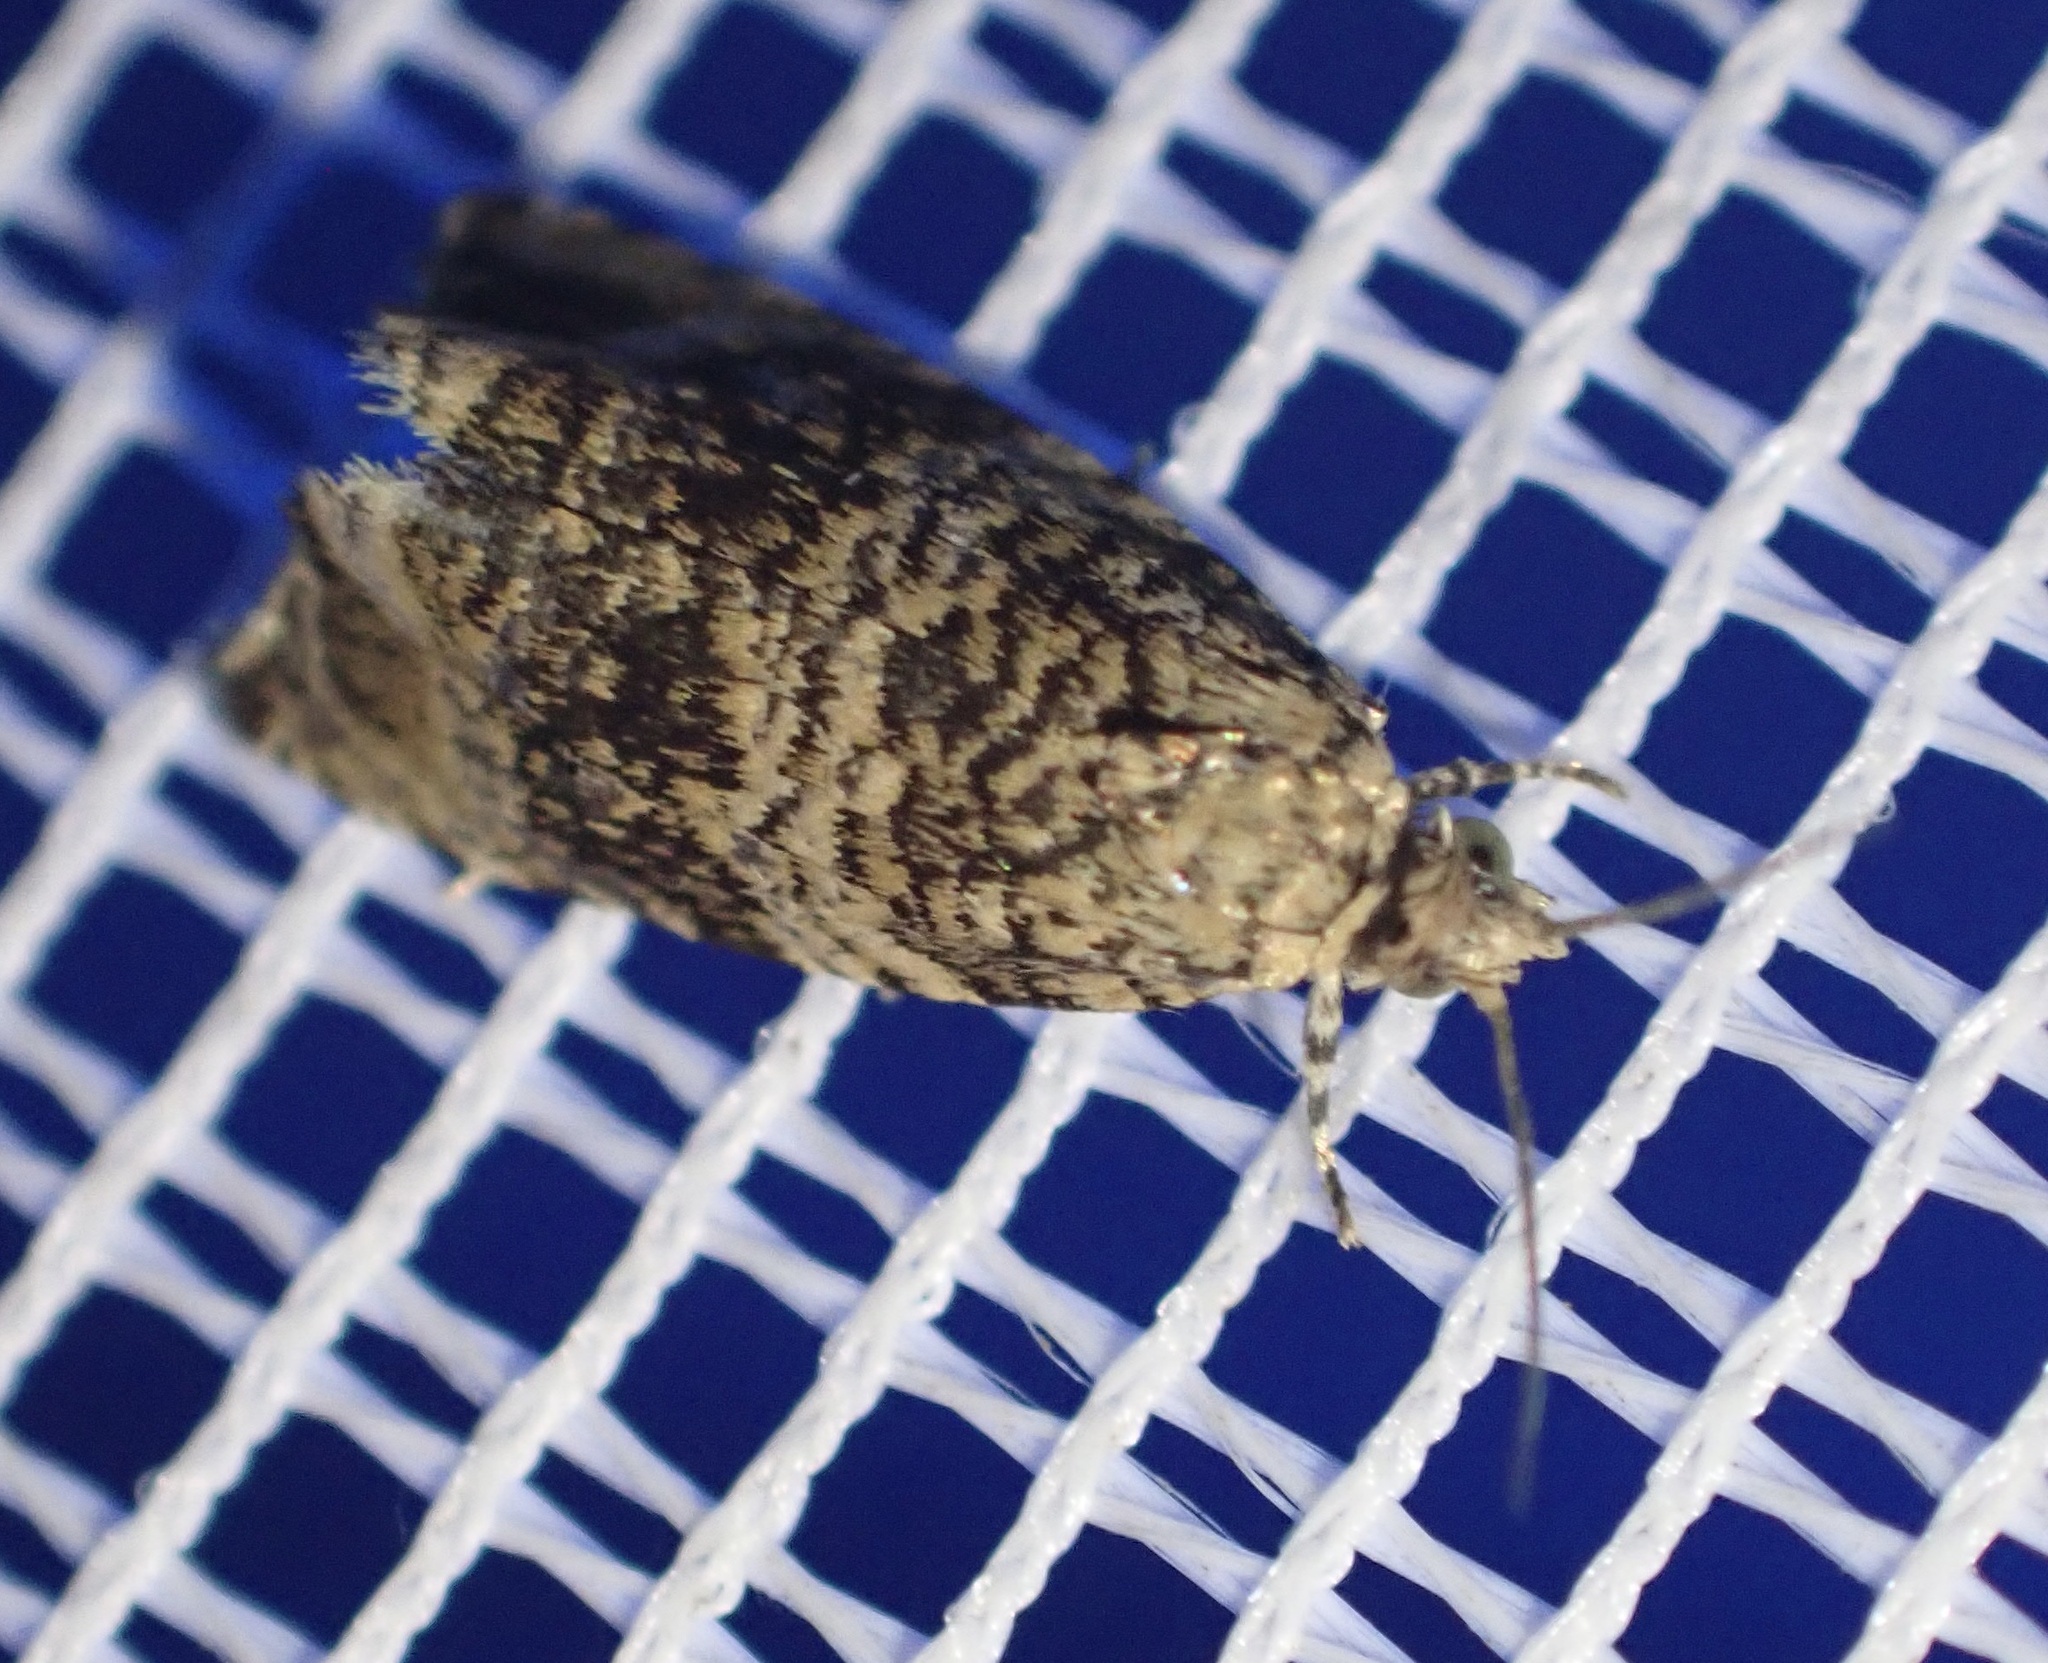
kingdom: Animalia
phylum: Arthropoda
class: Insecta
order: Lepidoptera
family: Tortricidae
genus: Syricoris
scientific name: Syricoris lacunana
